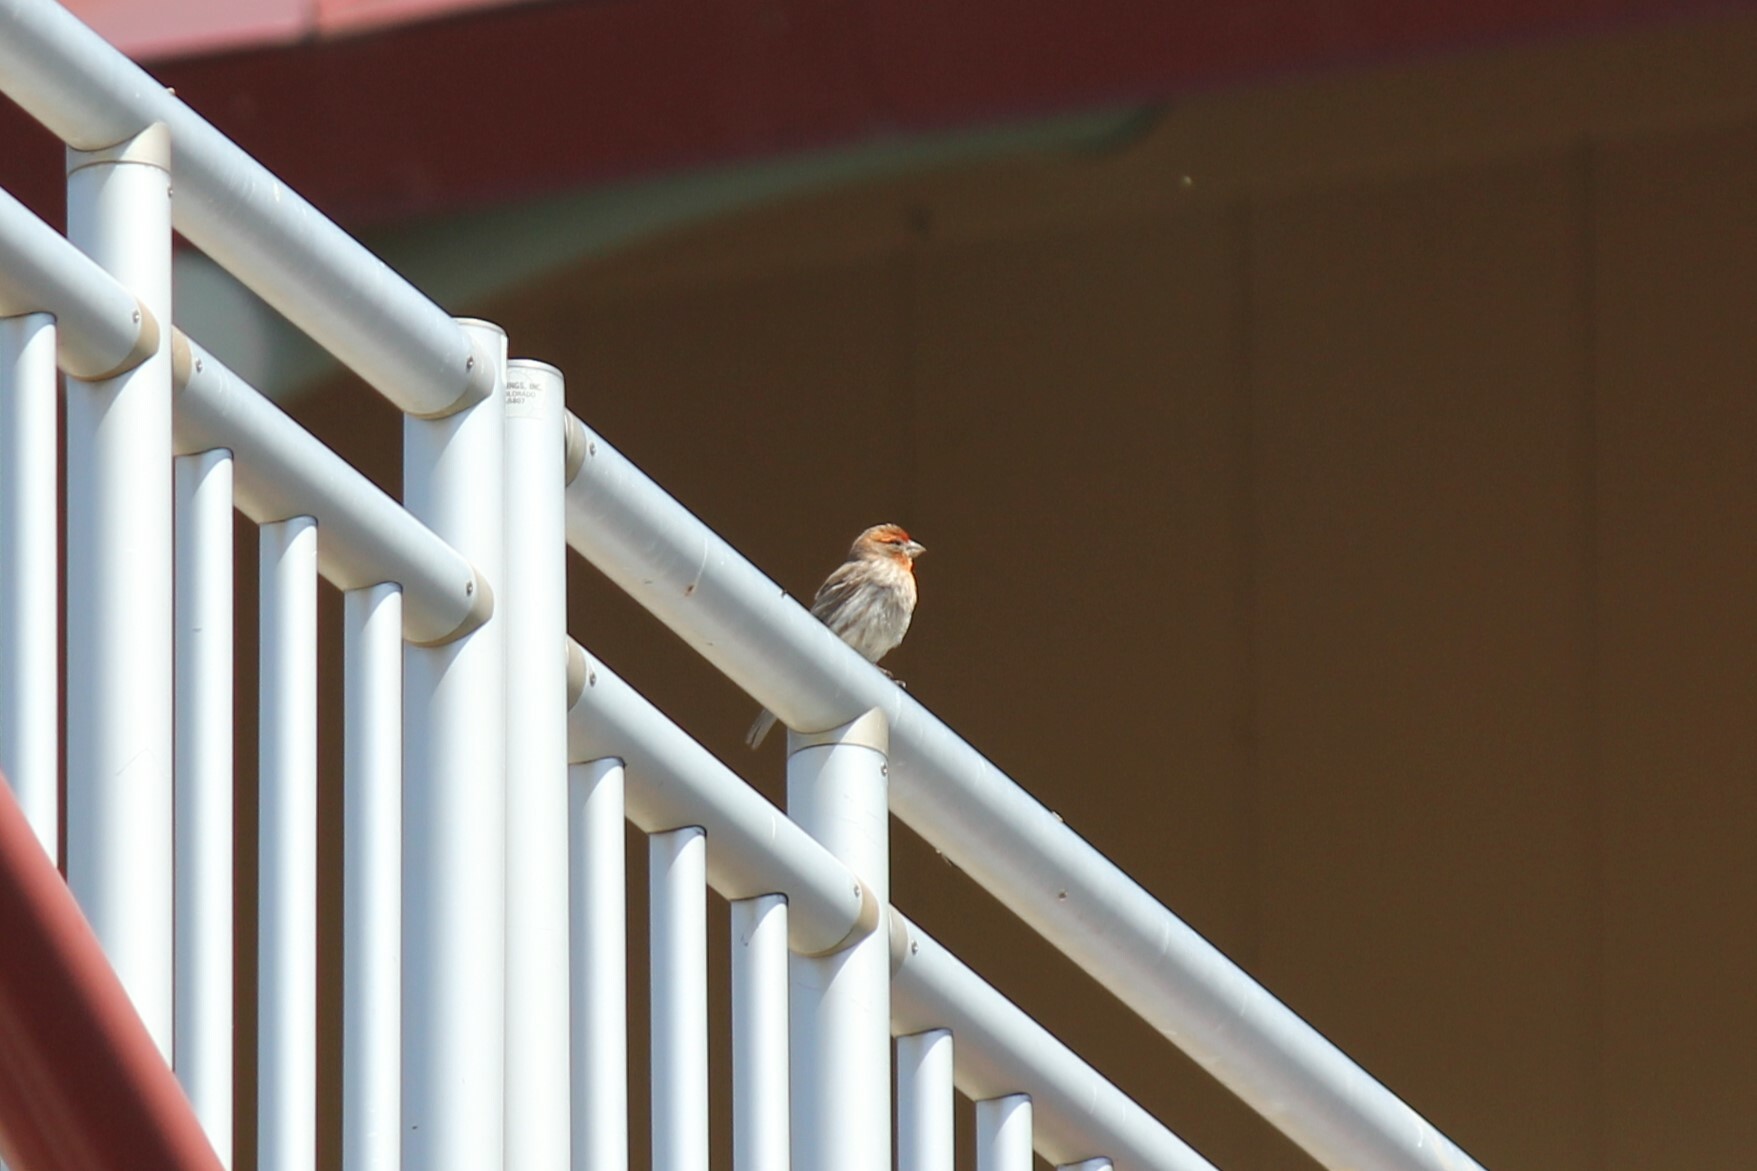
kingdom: Animalia
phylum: Chordata
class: Aves
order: Passeriformes
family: Fringillidae
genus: Haemorhous
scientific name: Haemorhous mexicanus
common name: House finch
